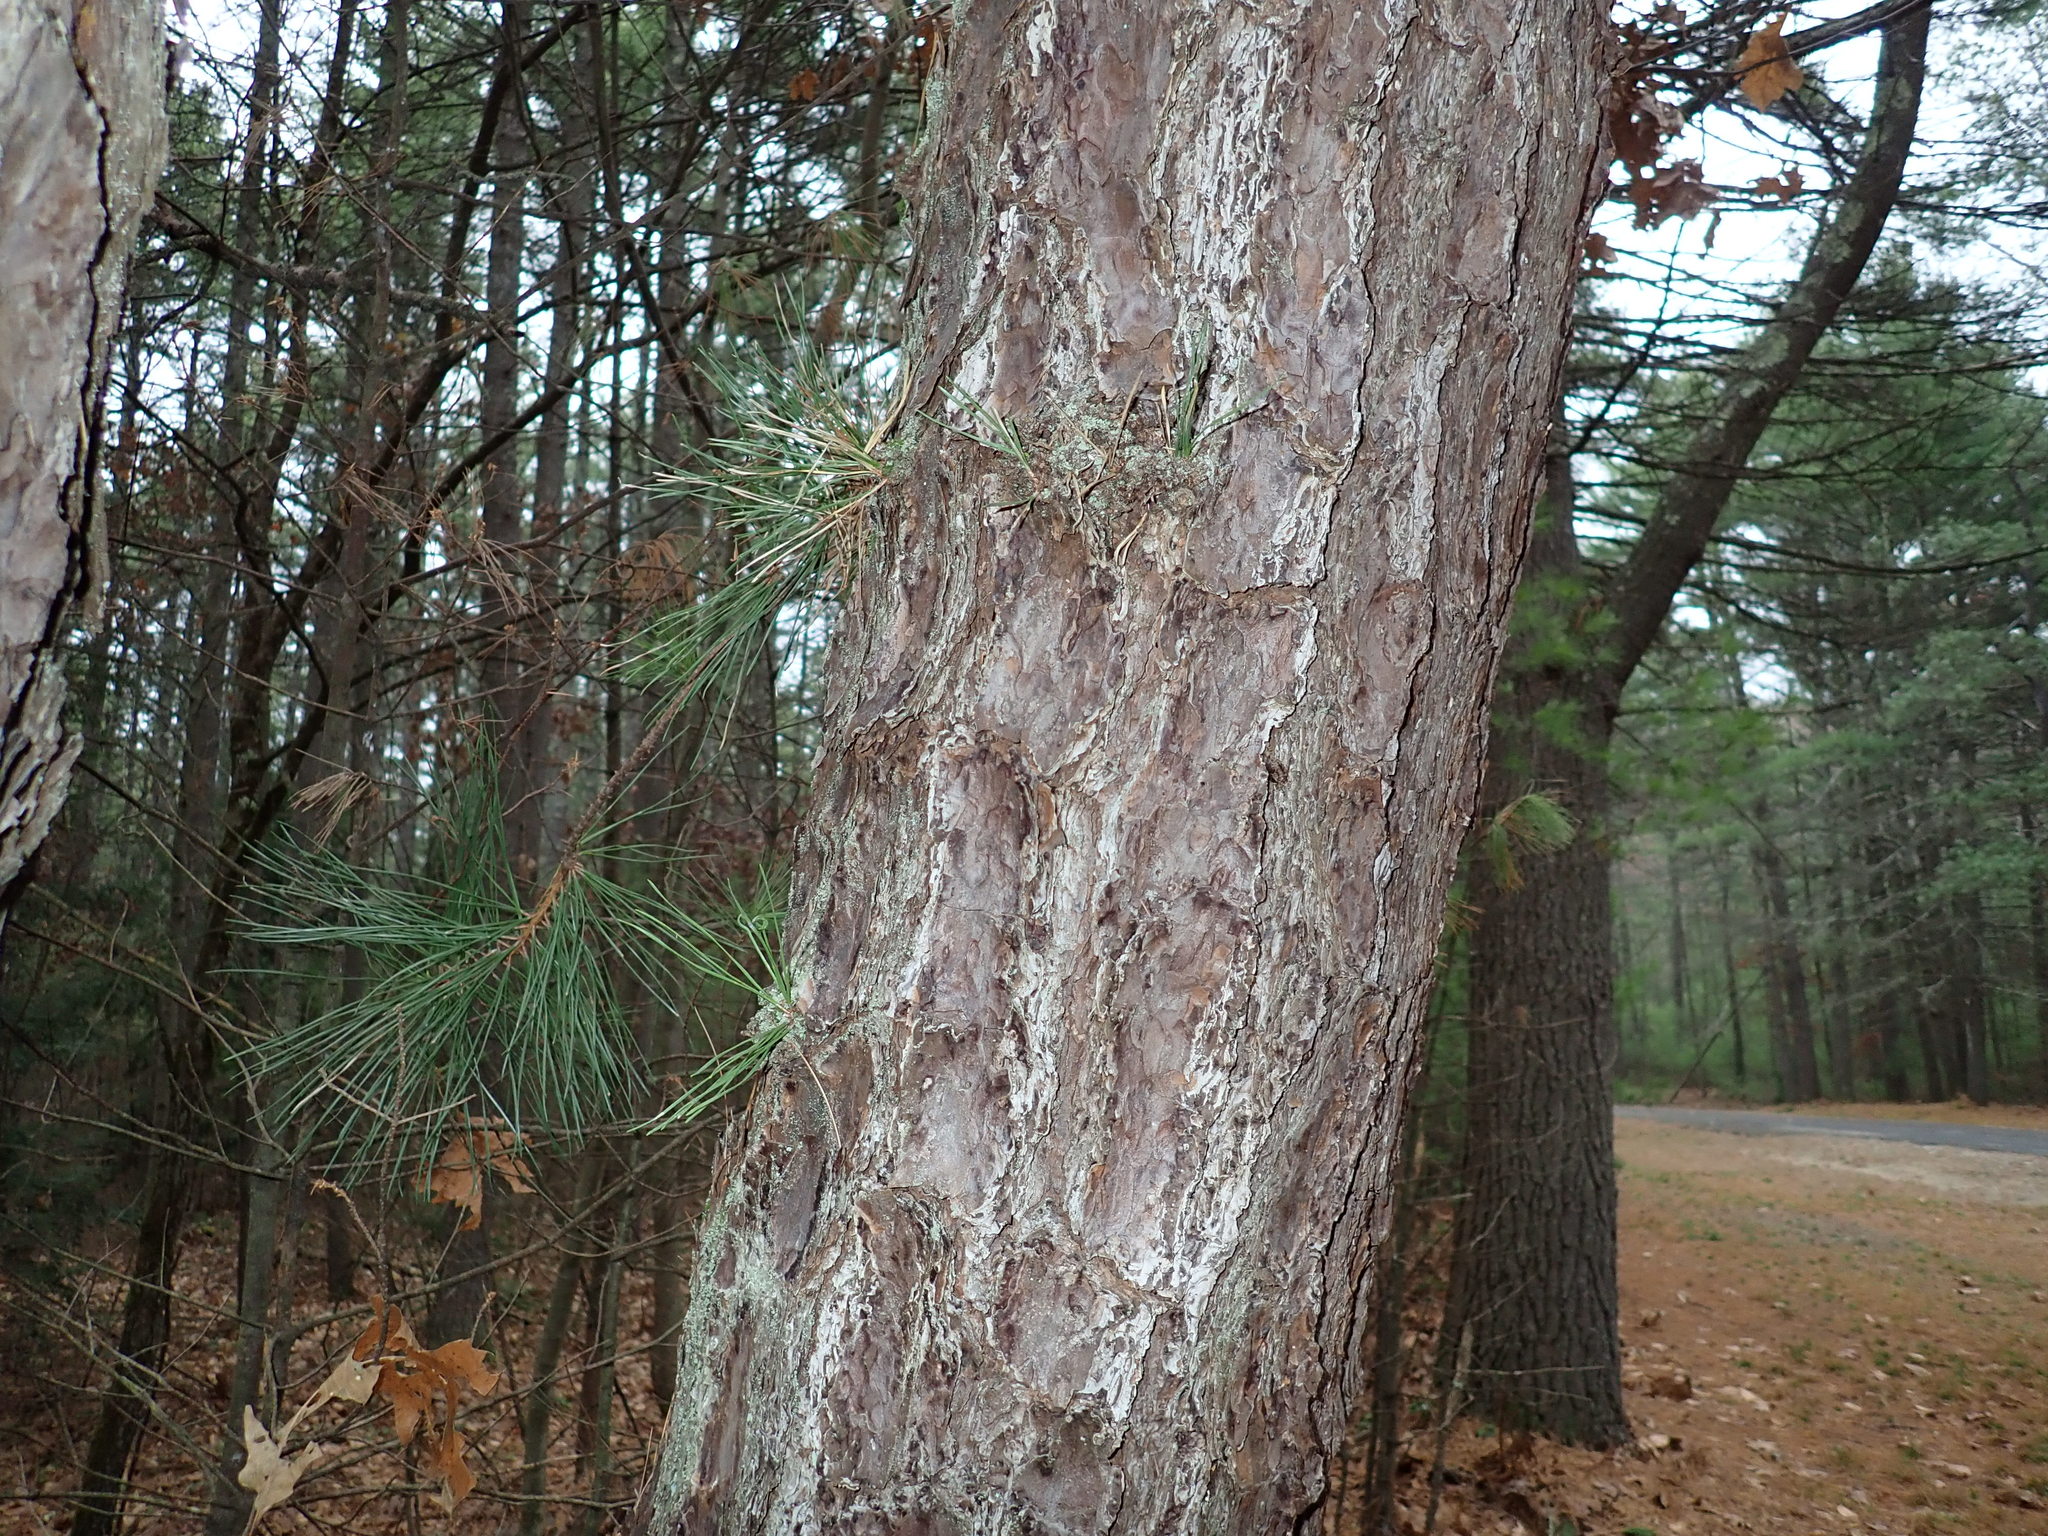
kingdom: Plantae
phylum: Tracheophyta
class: Pinopsida
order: Pinales
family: Pinaceae
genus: Pinus
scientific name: Pinus rigida
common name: Pitch pine
